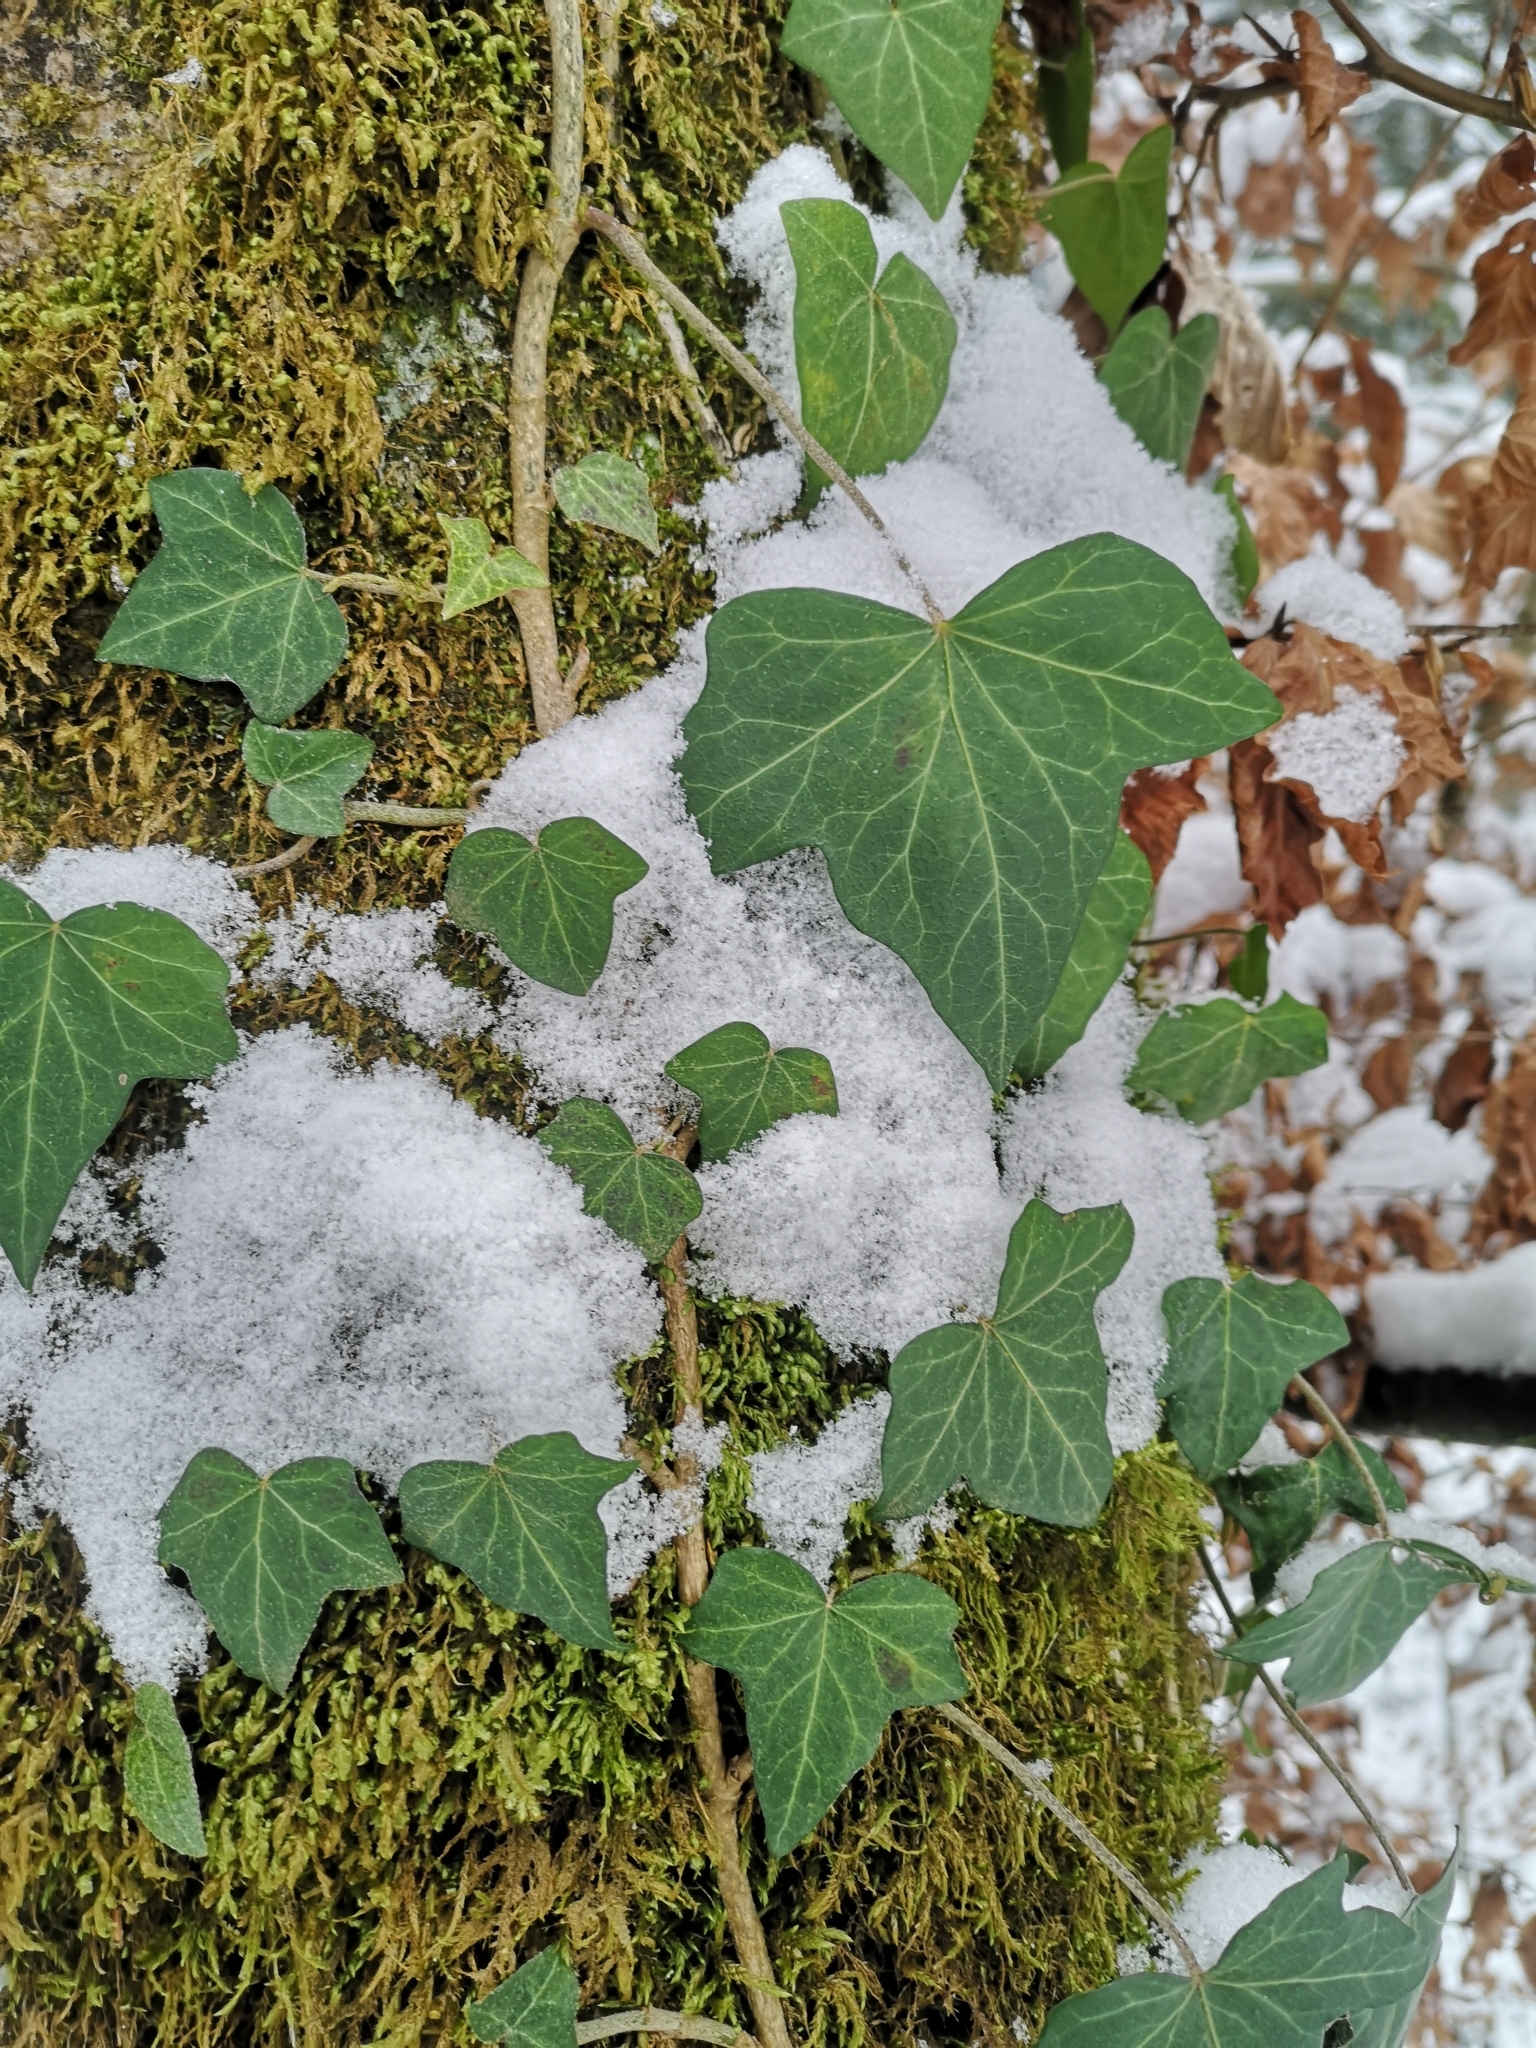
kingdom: Plantae
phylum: Tracheophyta
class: Magnoliopsida
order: Apiales
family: Araliaceae
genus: Hedera
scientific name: Hedera helix
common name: Ivy
